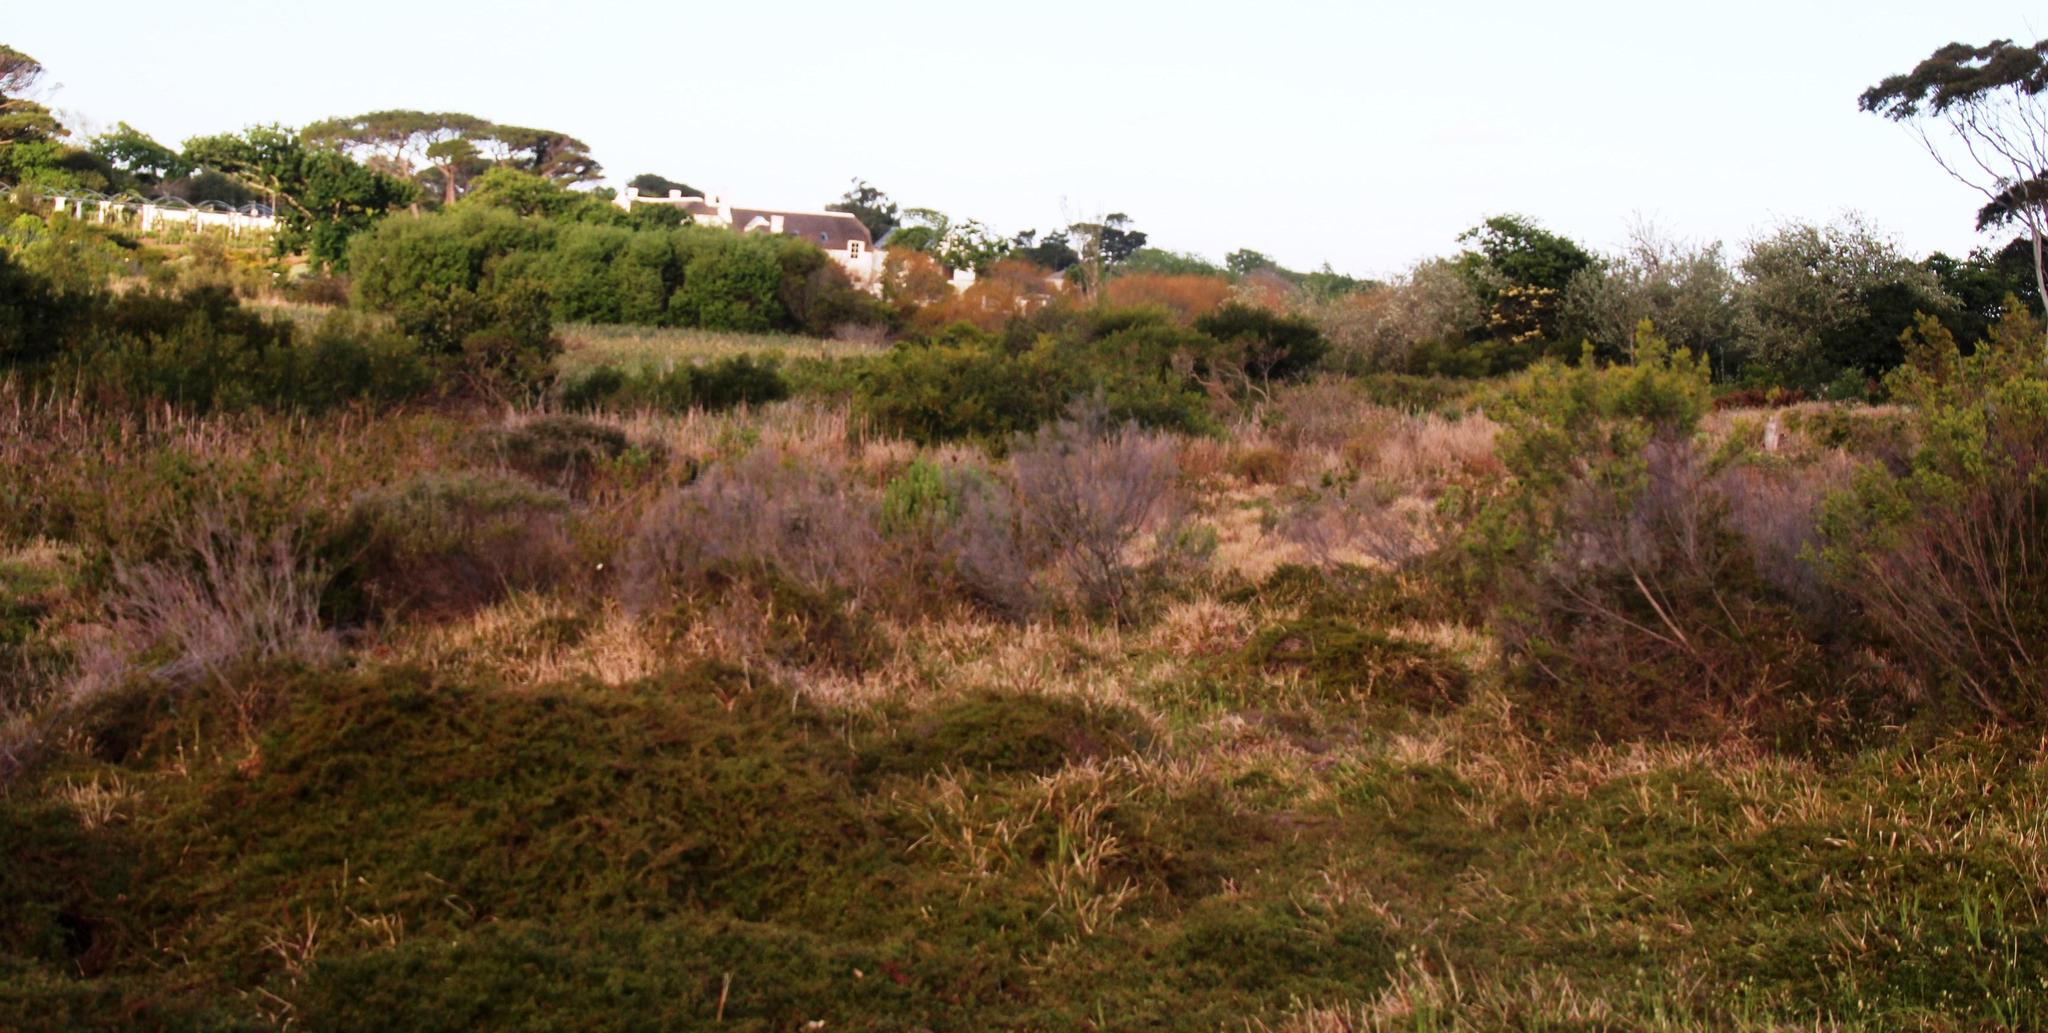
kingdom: Plantae
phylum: Tracheophyta
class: Magnoliopsida
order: Rosales
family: Rosaceae
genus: Cliffortia
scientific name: Cliffortia ferruginea
